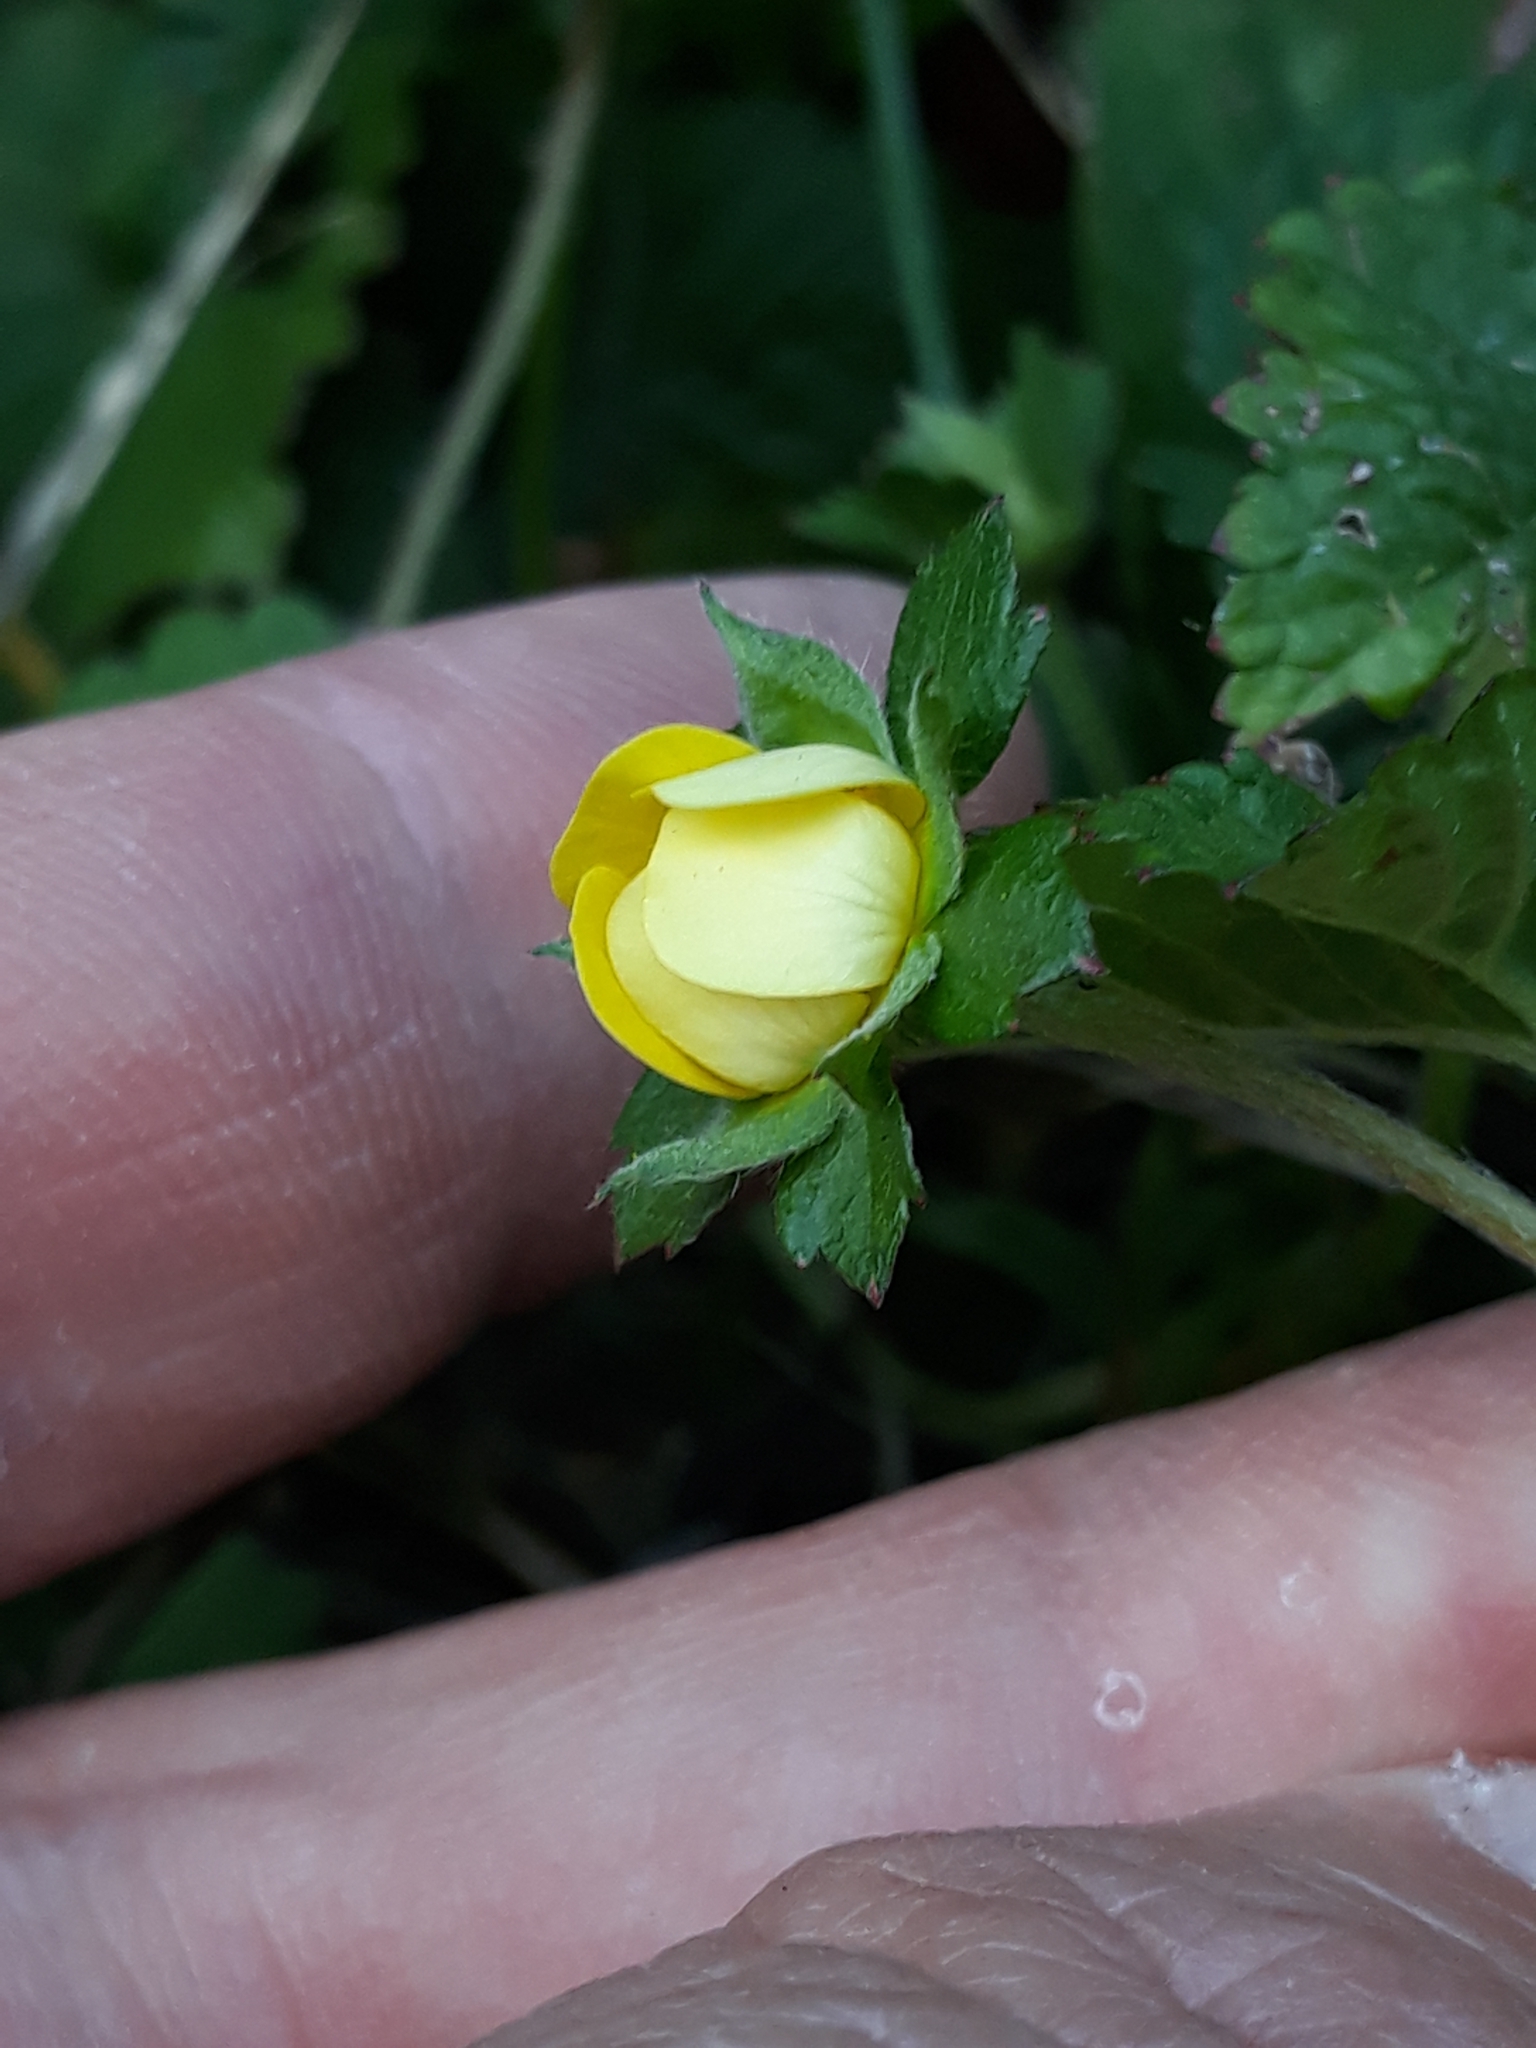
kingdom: Plantae
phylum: Tracheophyta
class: Magnoliopsida
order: Rosales
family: Rosaceae
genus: Potentilla
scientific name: Potentilla indica
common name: Yellow-flowered strawberry
